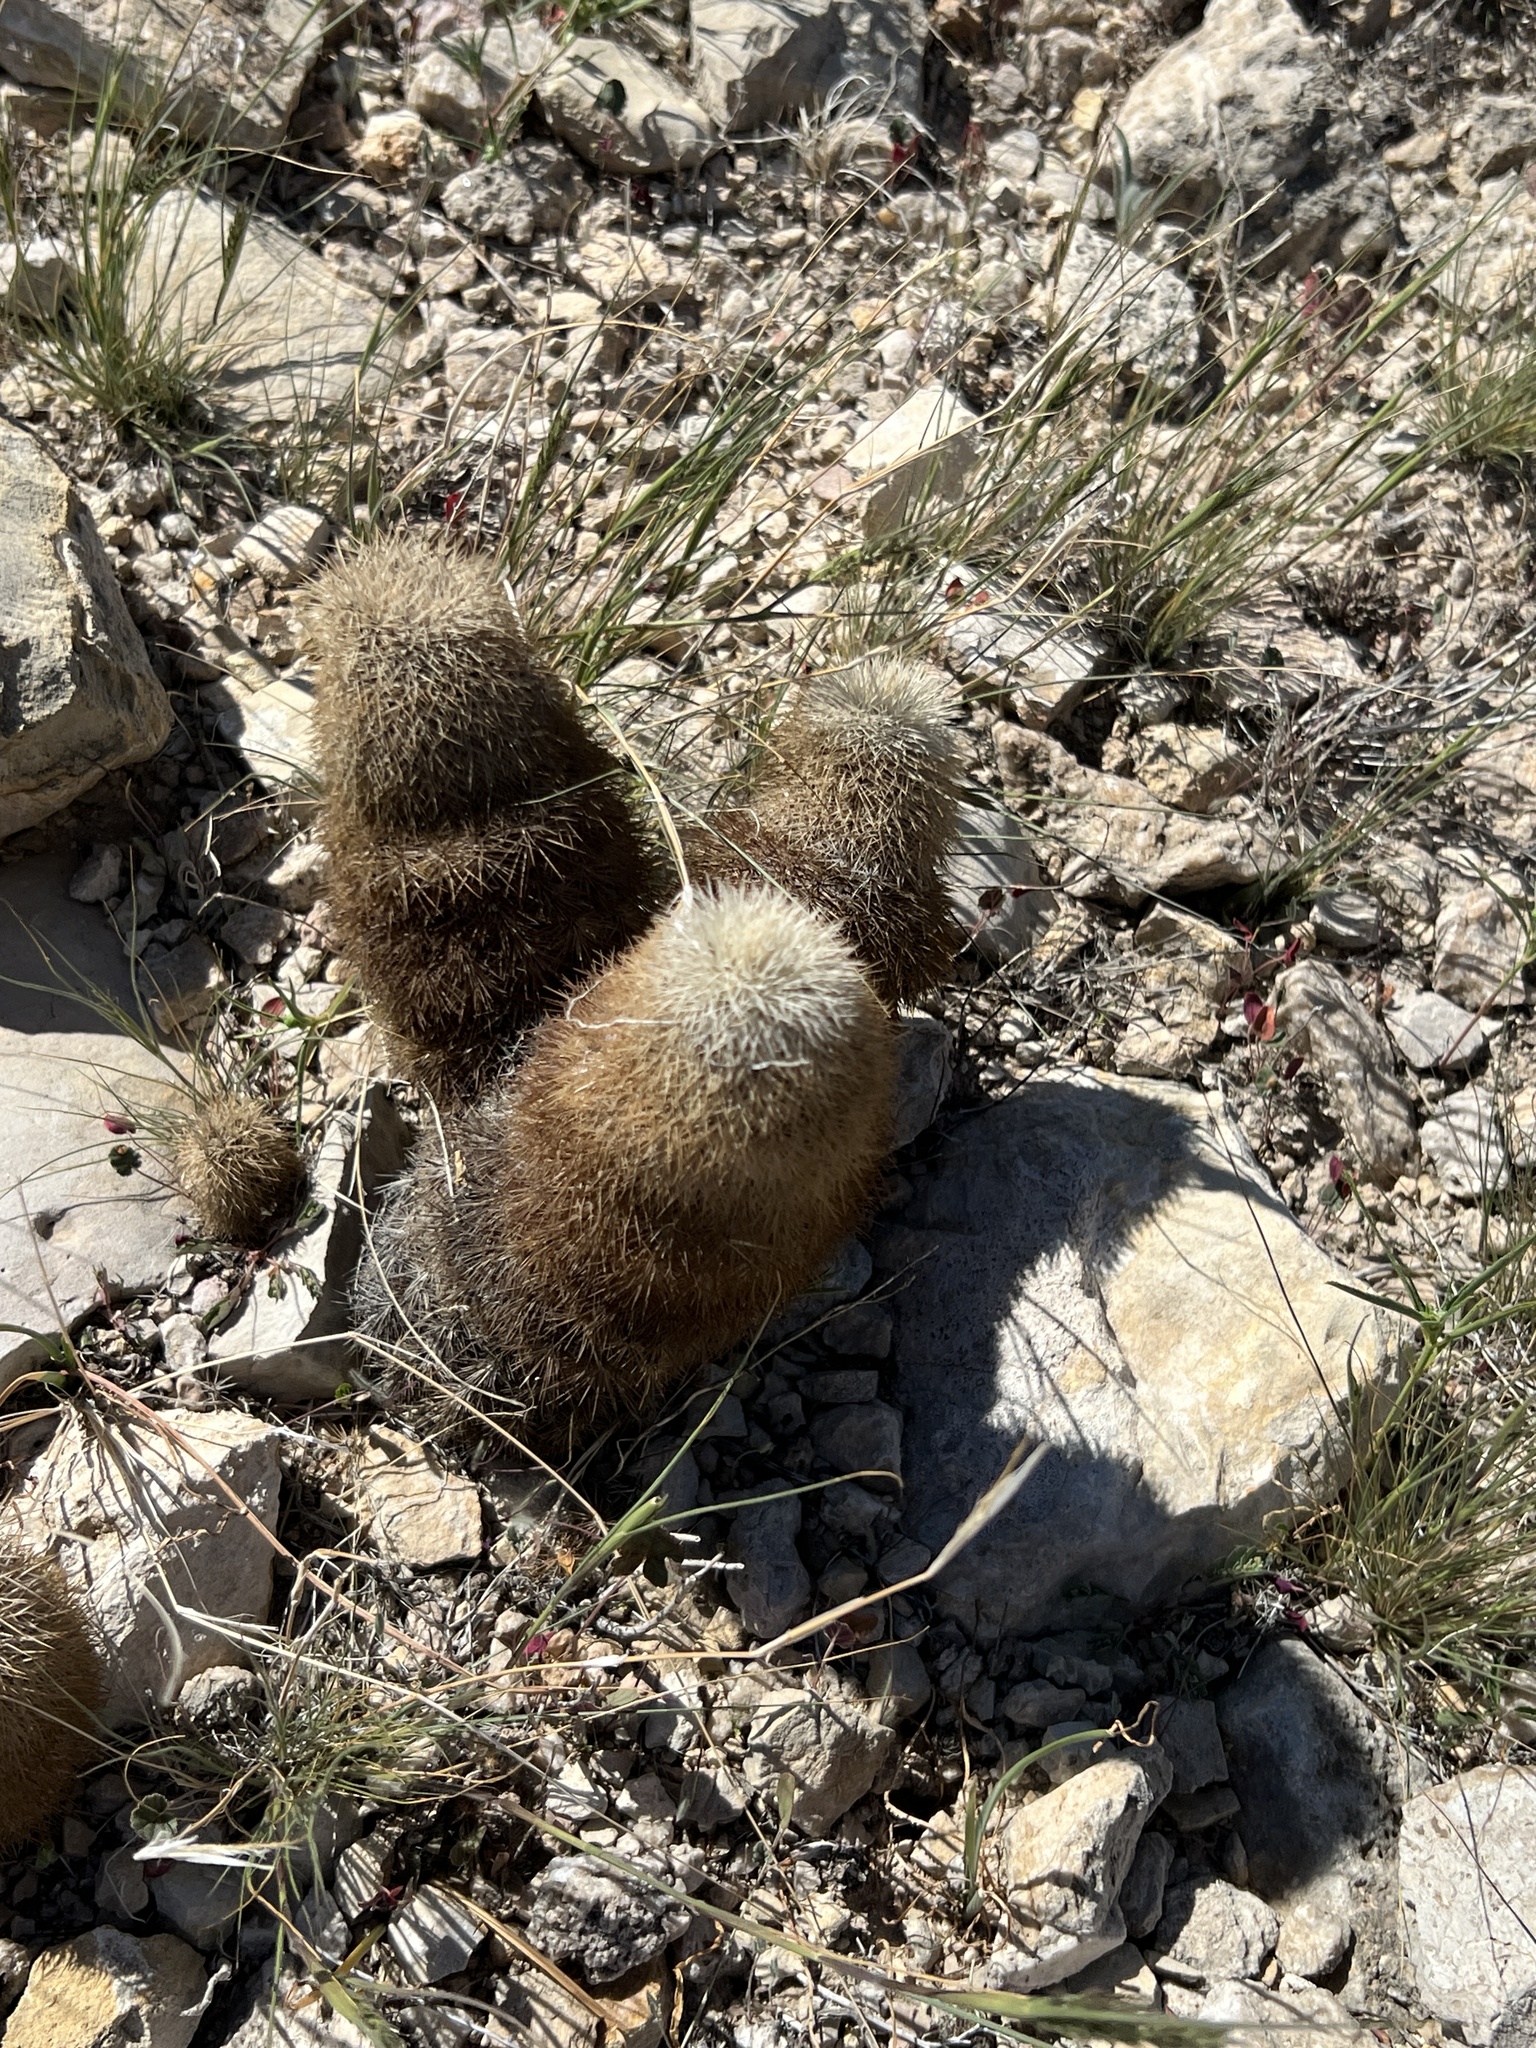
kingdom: Plantae
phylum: Tracheophyta
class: Magnoliopsida
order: Caryophyllales
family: Cactaceae
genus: Echinocereus
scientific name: Echinocereus dasyacanthus
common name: Spiny hedgehog cactus
